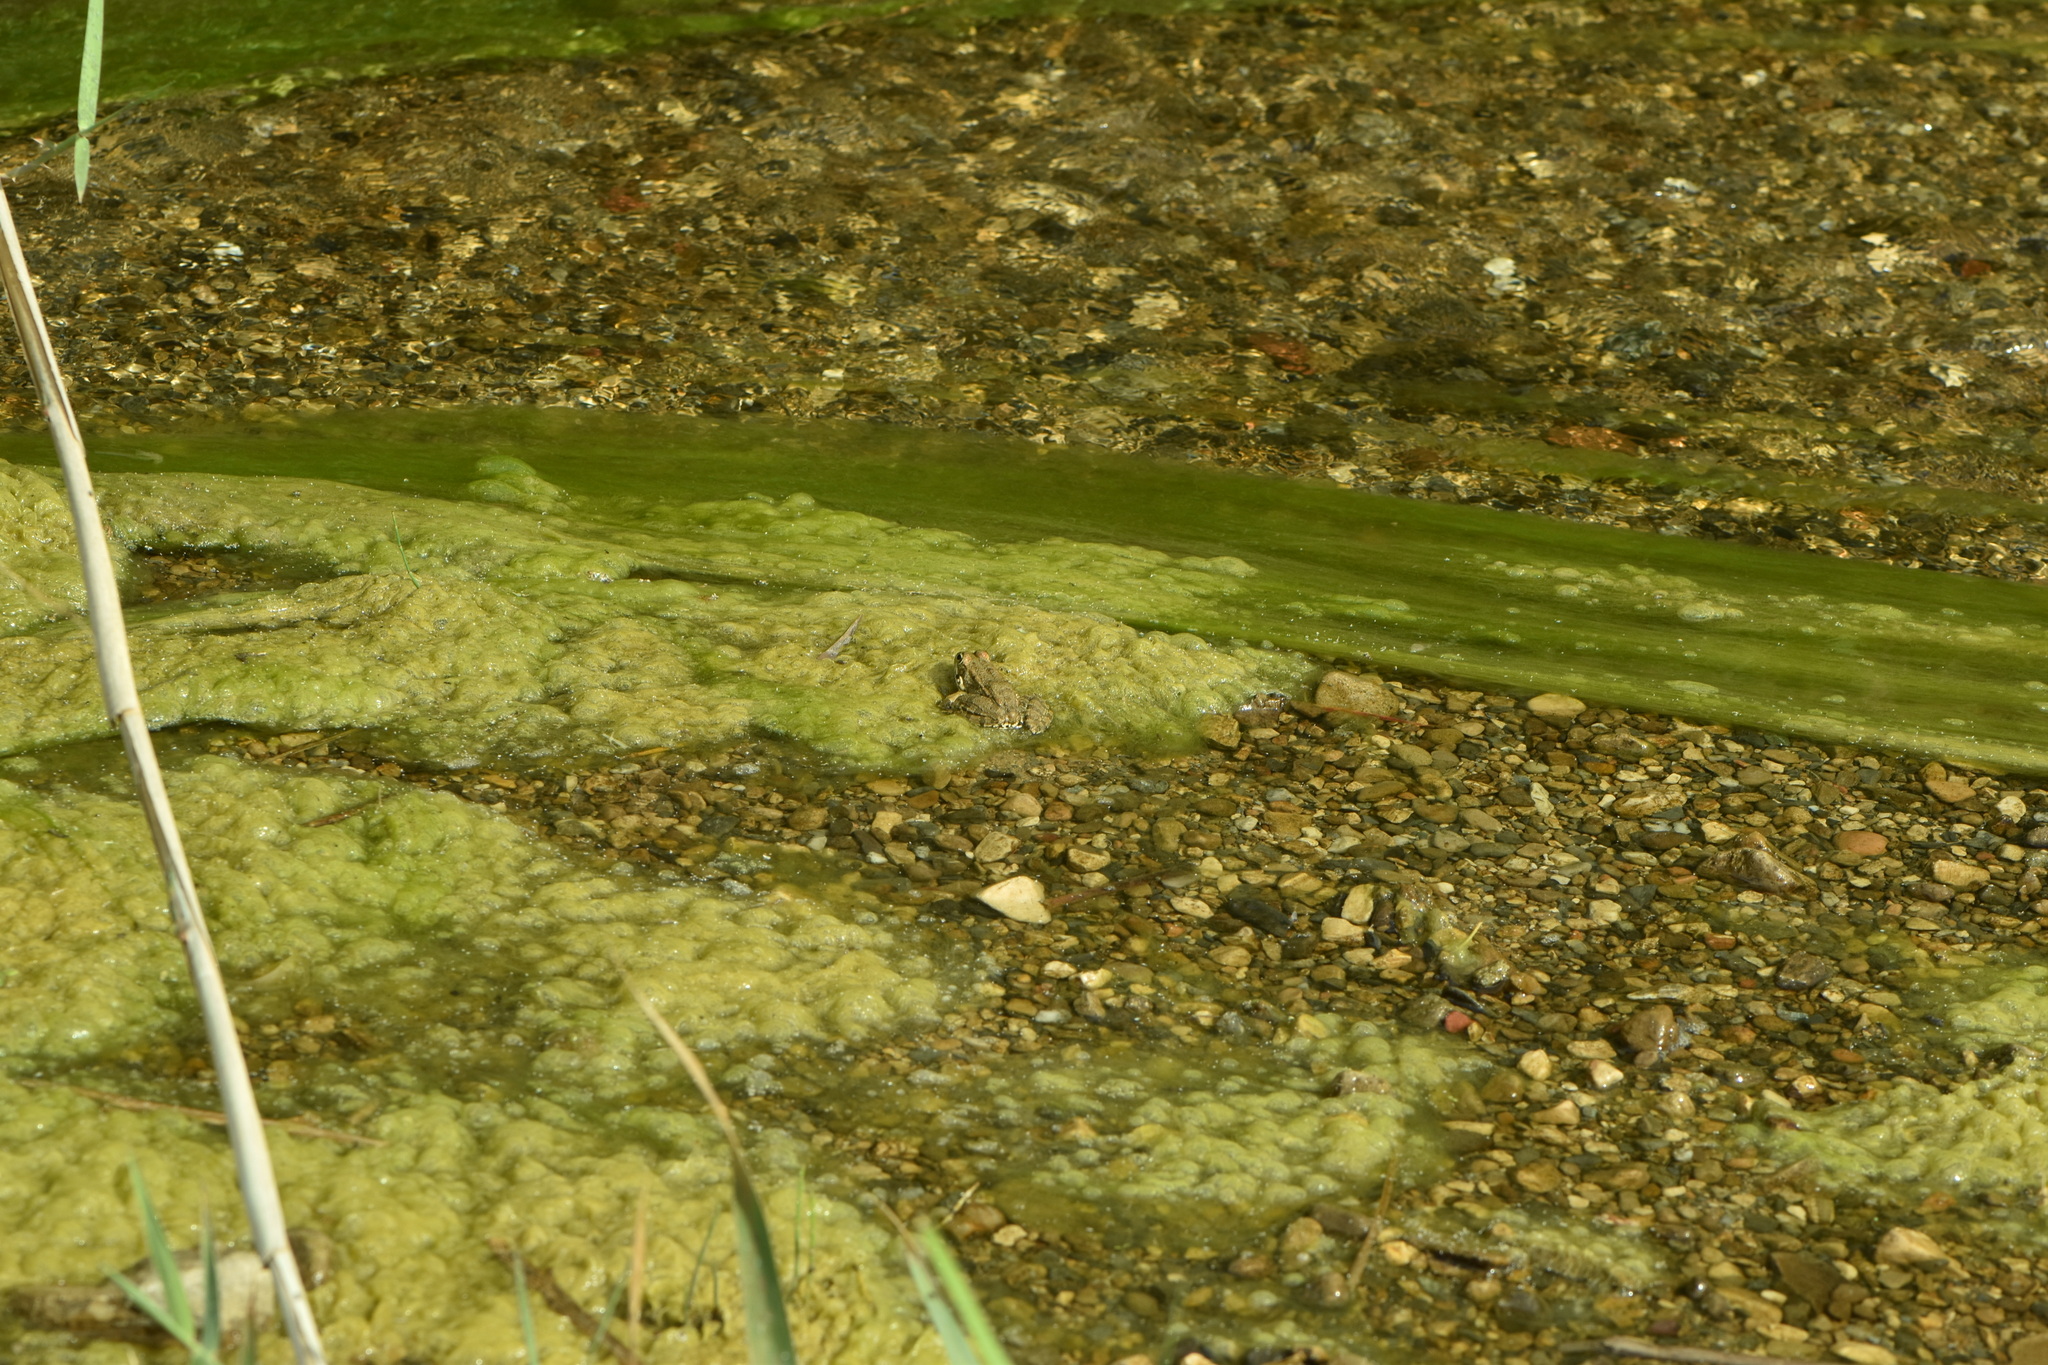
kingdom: Animalia
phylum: Chordata
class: Amphibia
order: Anura
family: Ranidae
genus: Pelophylax
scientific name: Pelophylax perezi
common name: Perez's frog
